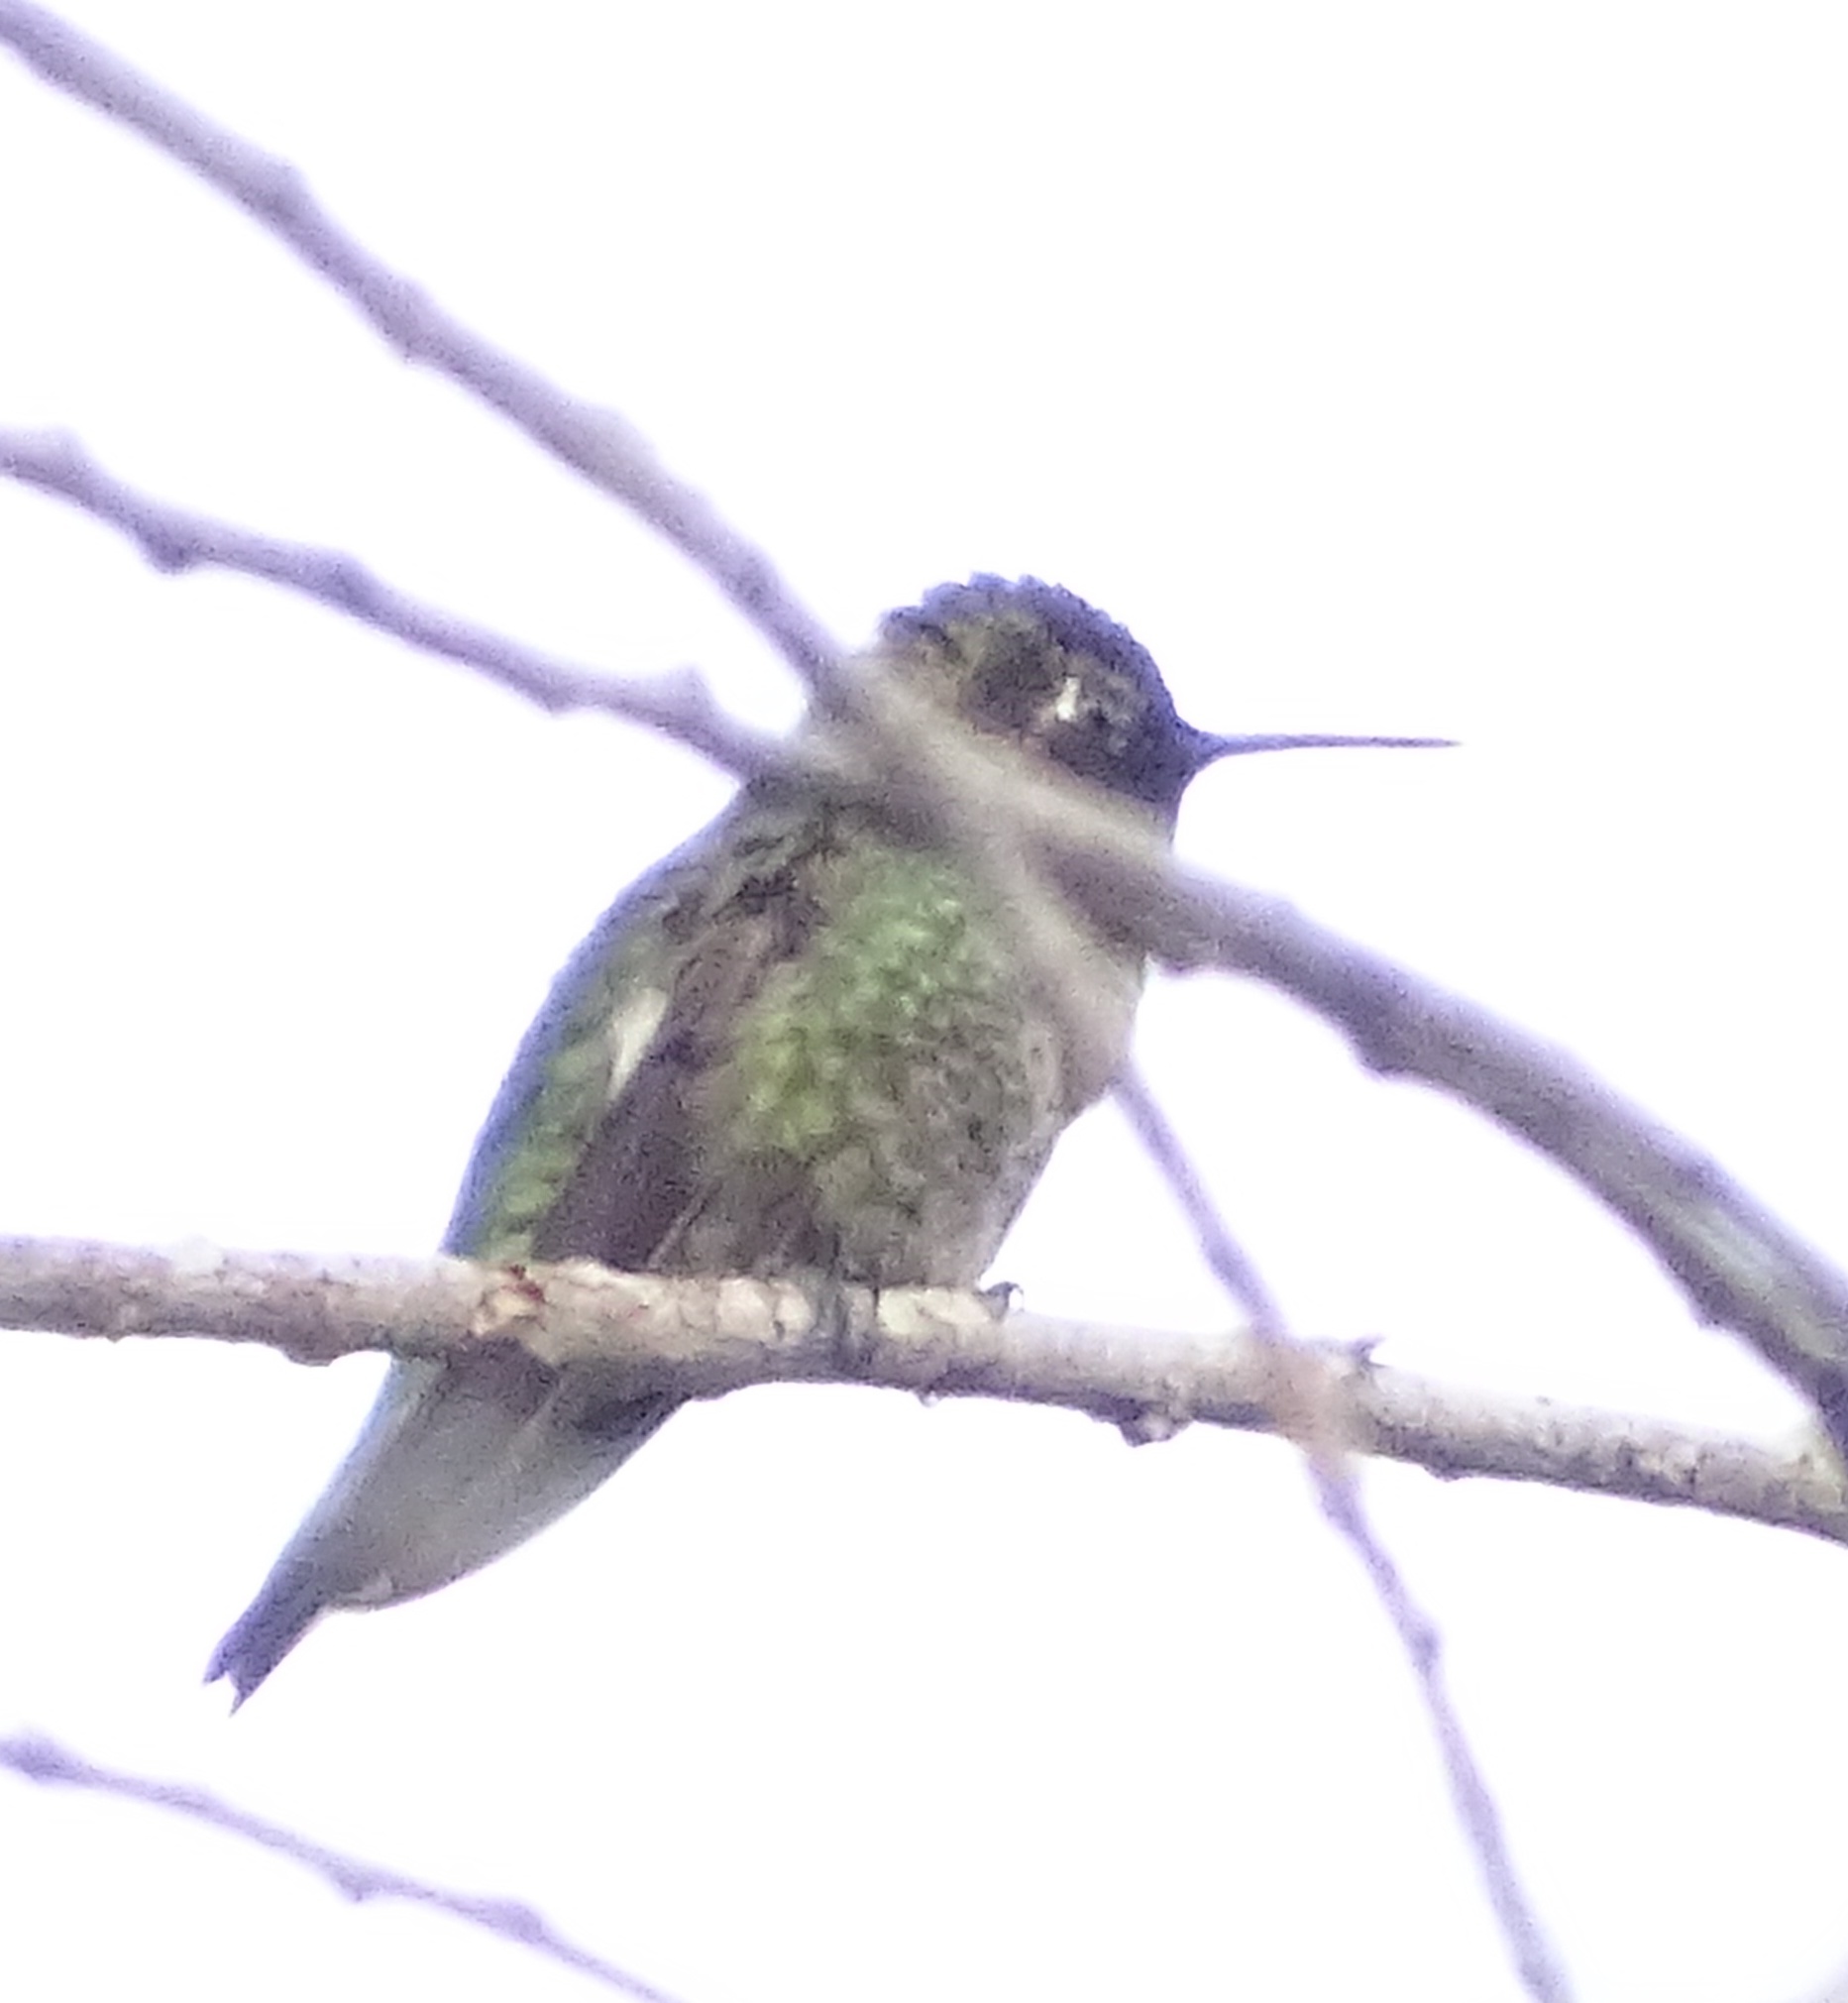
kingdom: Animalia
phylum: Chordata
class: Aves
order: Apodiformes
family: Trochilidae
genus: Calypte
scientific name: Calypte anna
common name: Anna's hummingbird
